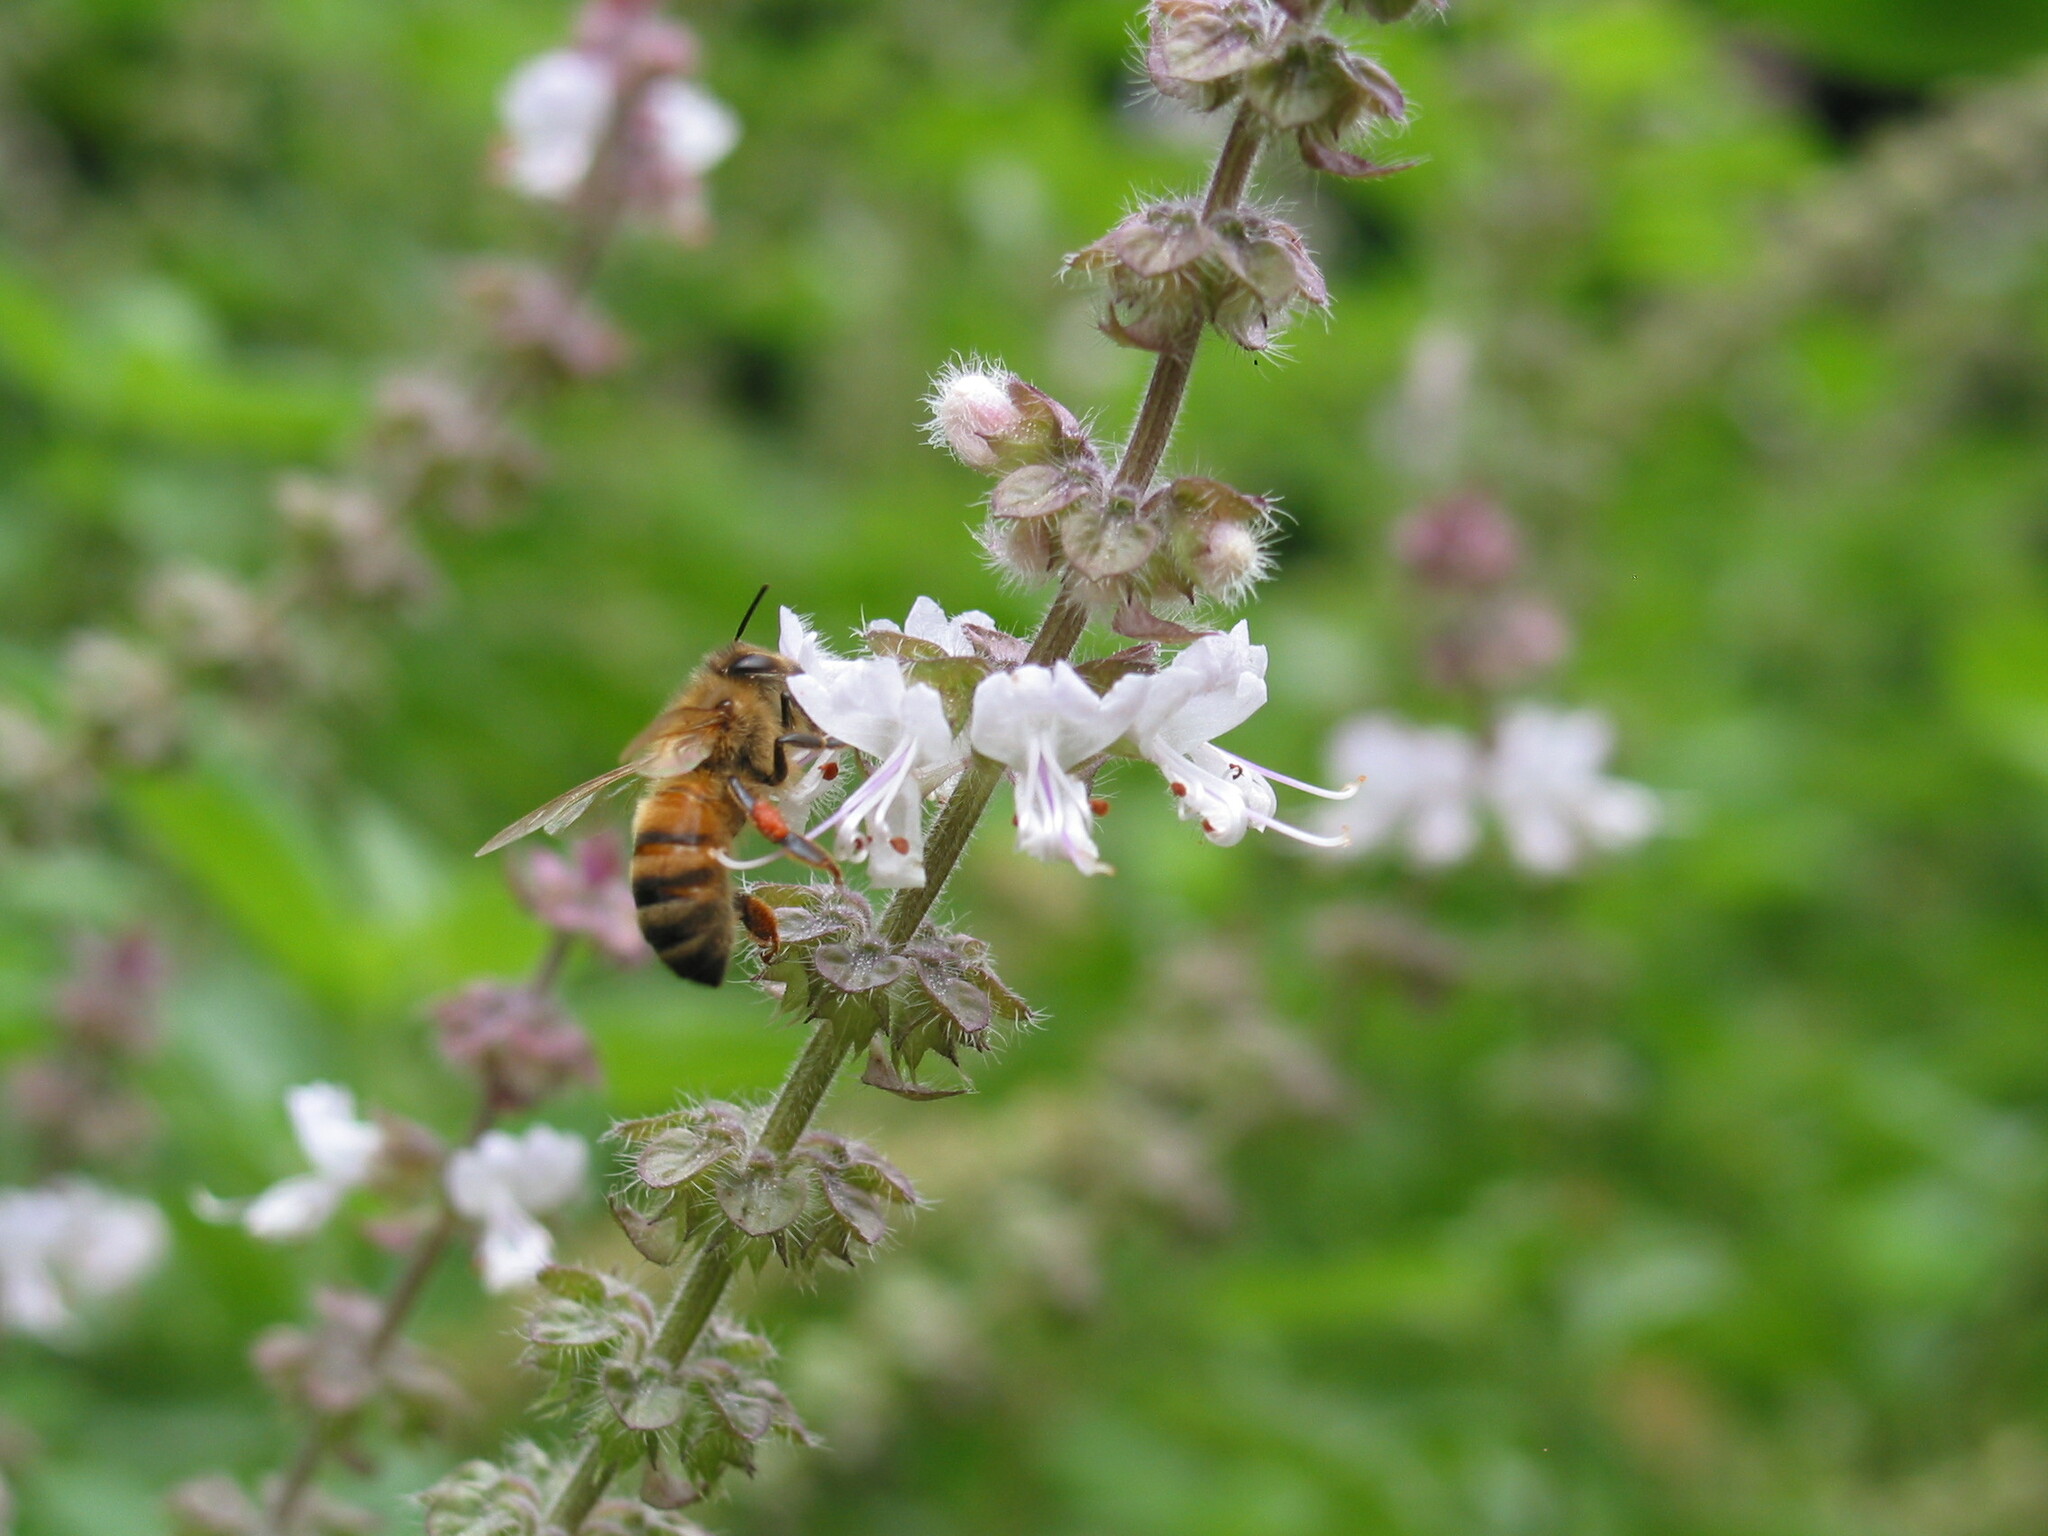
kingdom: Animalia
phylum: Arthropoda
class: Insecta
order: Hymenoptera
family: Apidae
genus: Apis
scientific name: Apis mellifera
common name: Honey bee
